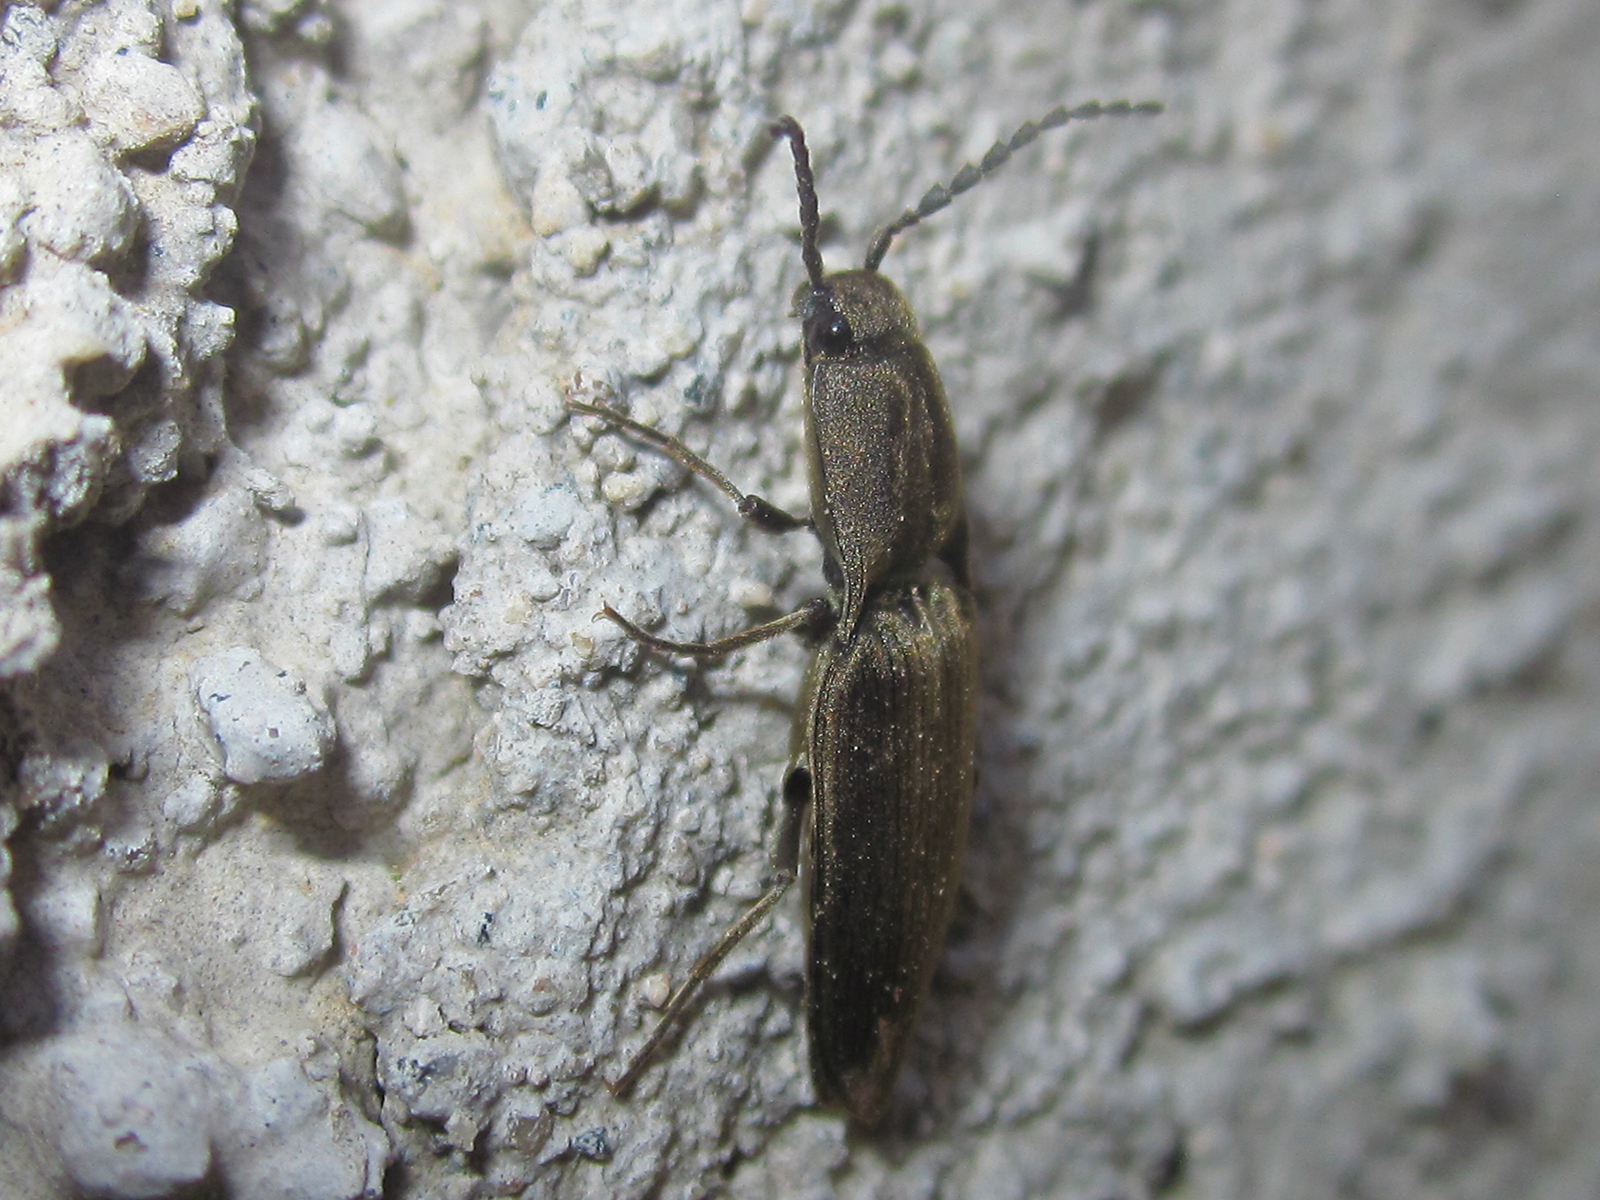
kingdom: Animalia
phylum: Arthropoda
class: Insecta
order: Coleoptera
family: Elateridae
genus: Bedresia
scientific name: Bedresia
